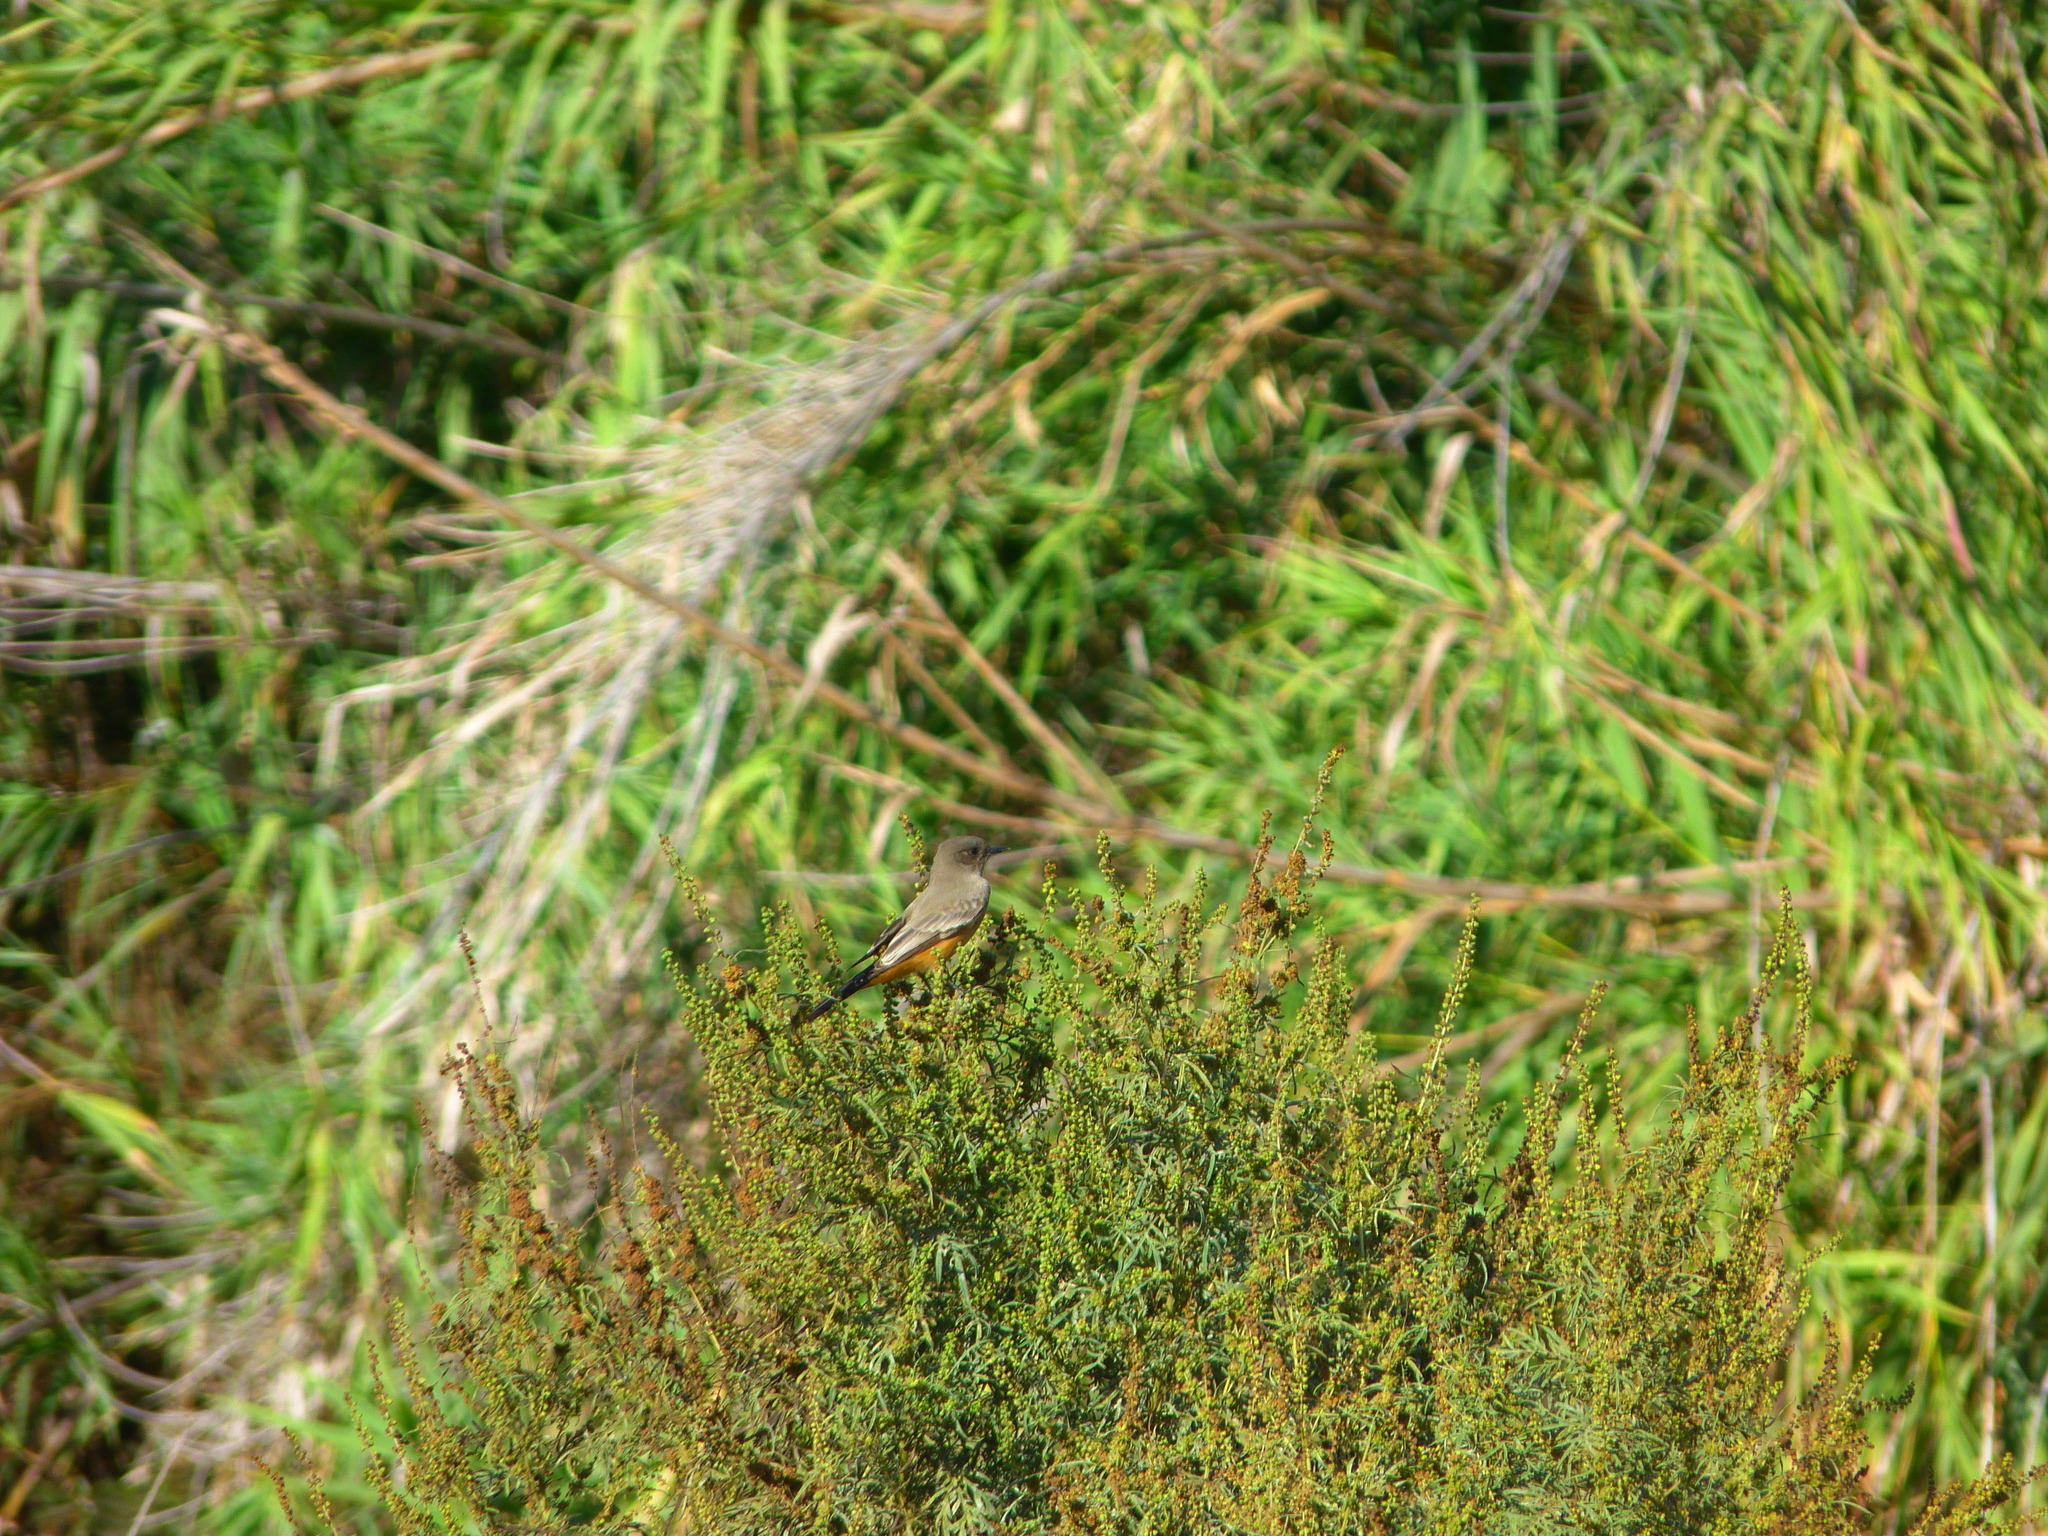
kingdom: Animalia
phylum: Chordata
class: Aves
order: Passeriformes
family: Tyrannidae
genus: Sayornis
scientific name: Sayornis saya
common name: Say's phoebe
